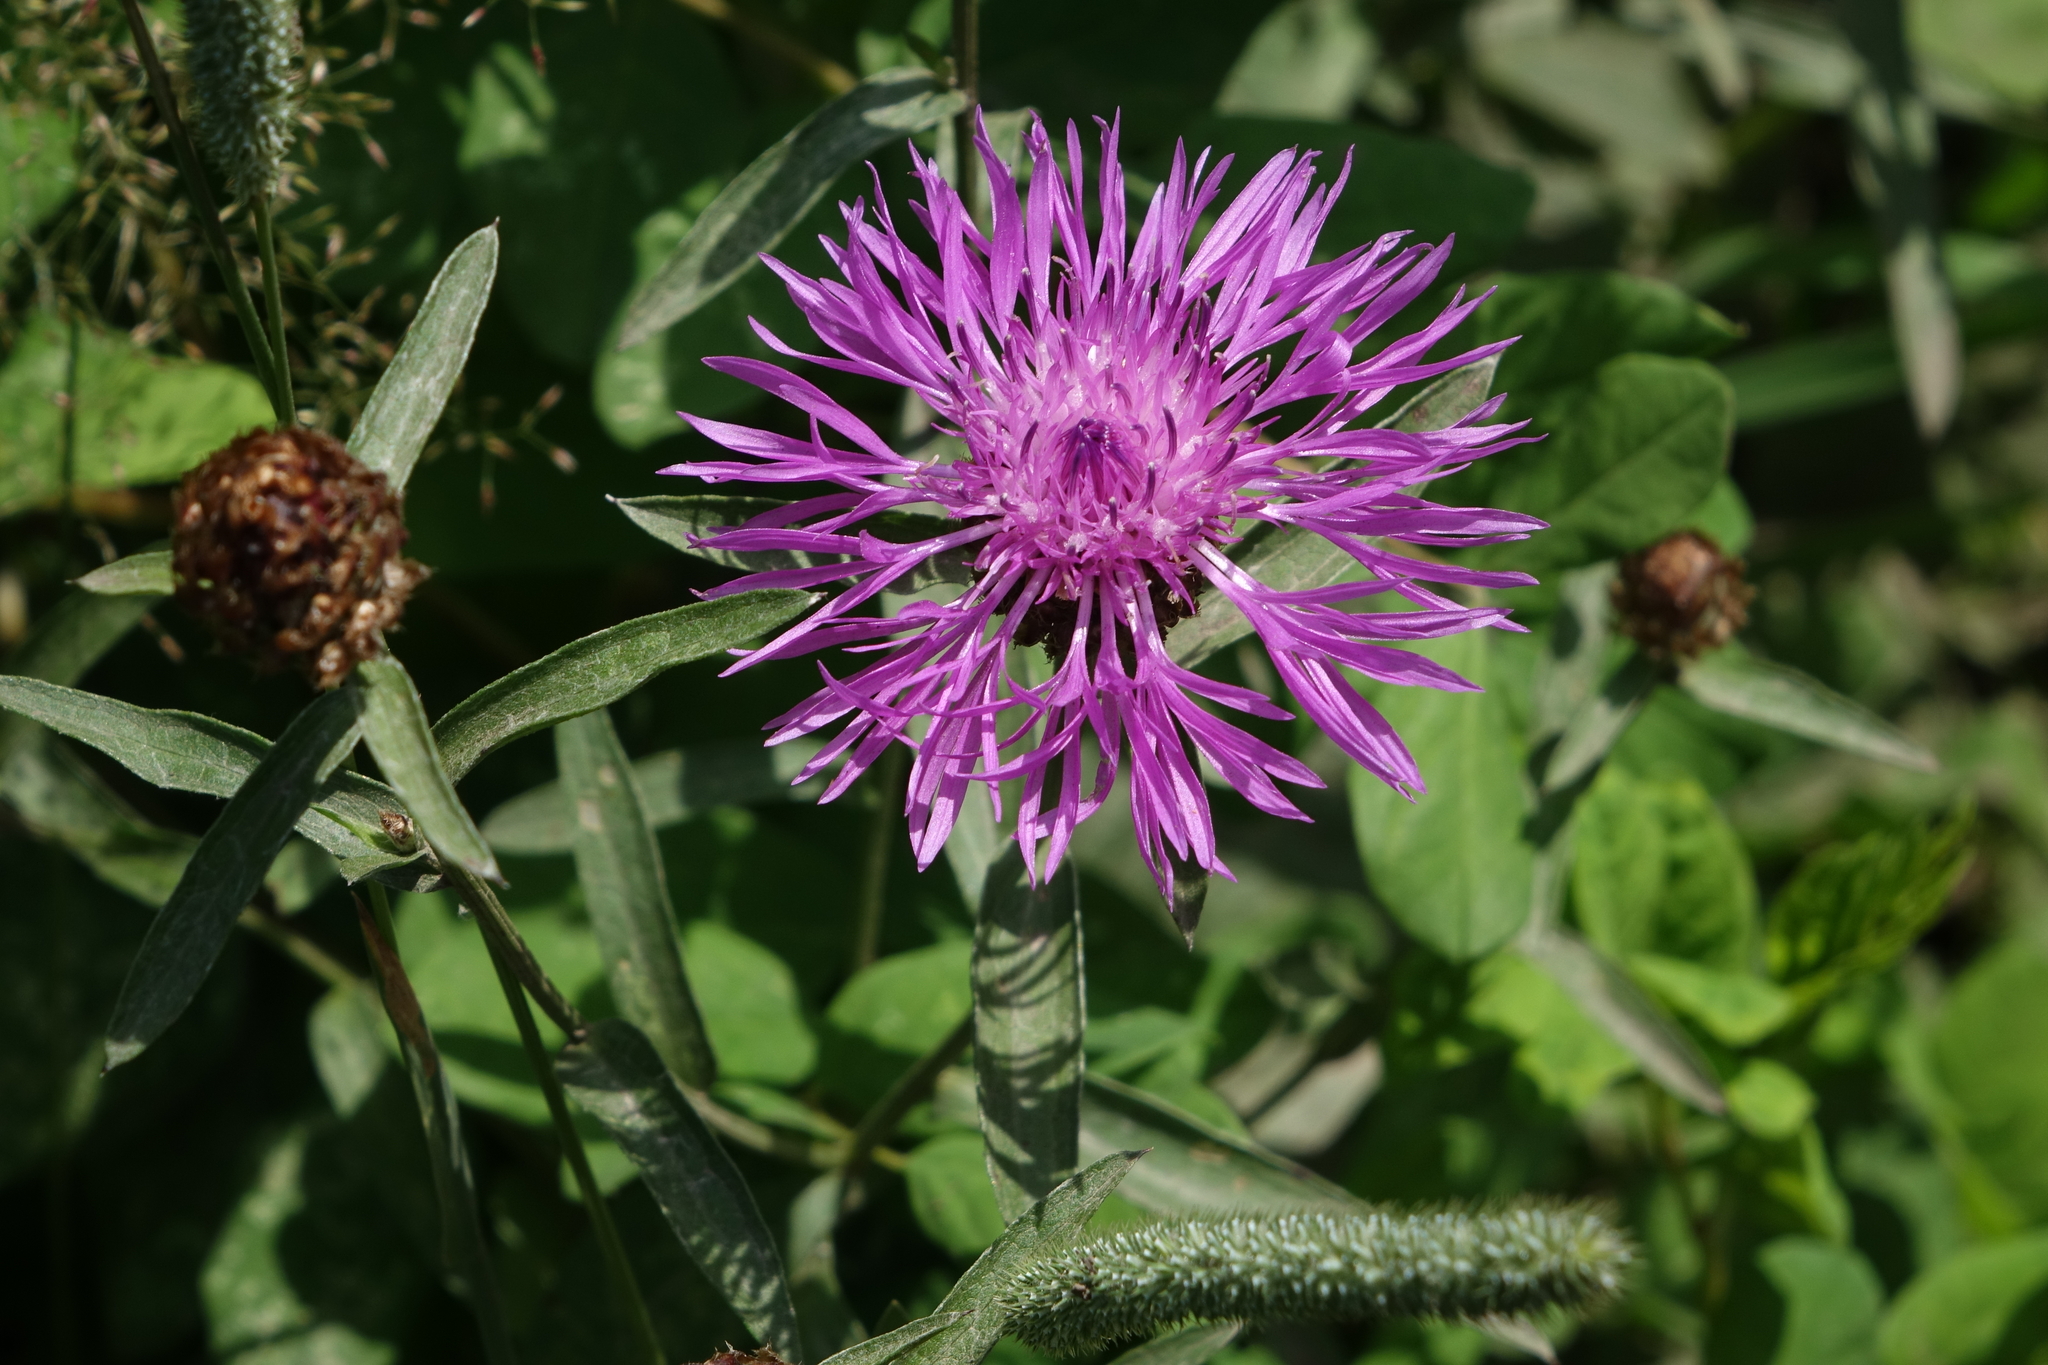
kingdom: Plantae
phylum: Tracheophyta
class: Magnoliopsida
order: Asterales
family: Asteraceae
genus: Centaurea
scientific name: Centaurea jacea
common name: Brown knapweed
